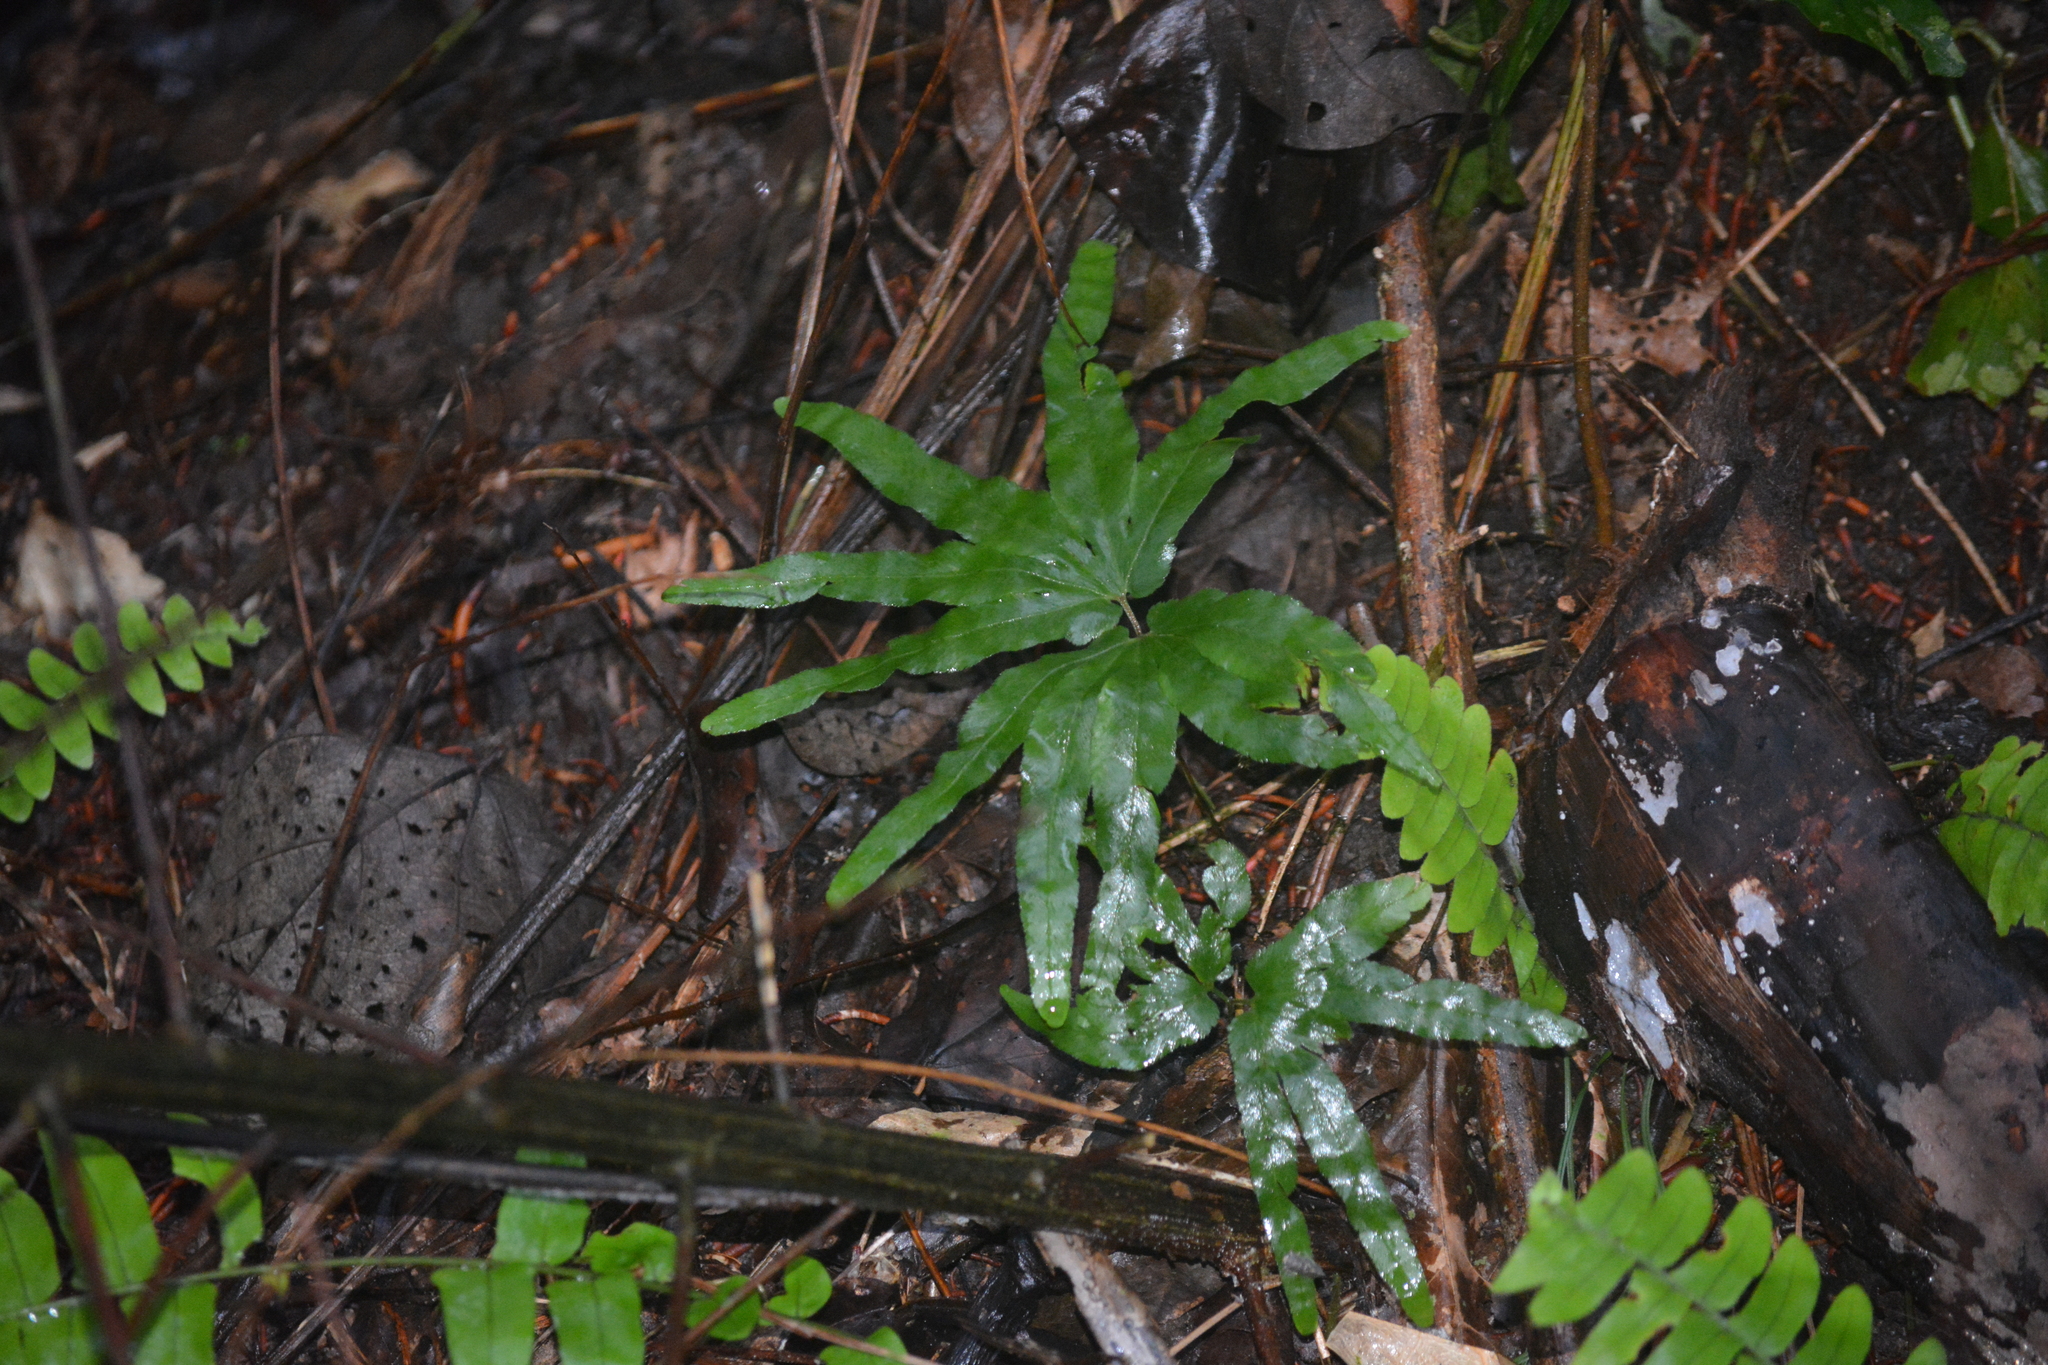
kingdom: Plantae
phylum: Tracheophyta
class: Polypodiopsida
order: Schizaeales
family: Lygodiaceae
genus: Lygodium
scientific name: Lygodium longifolium
